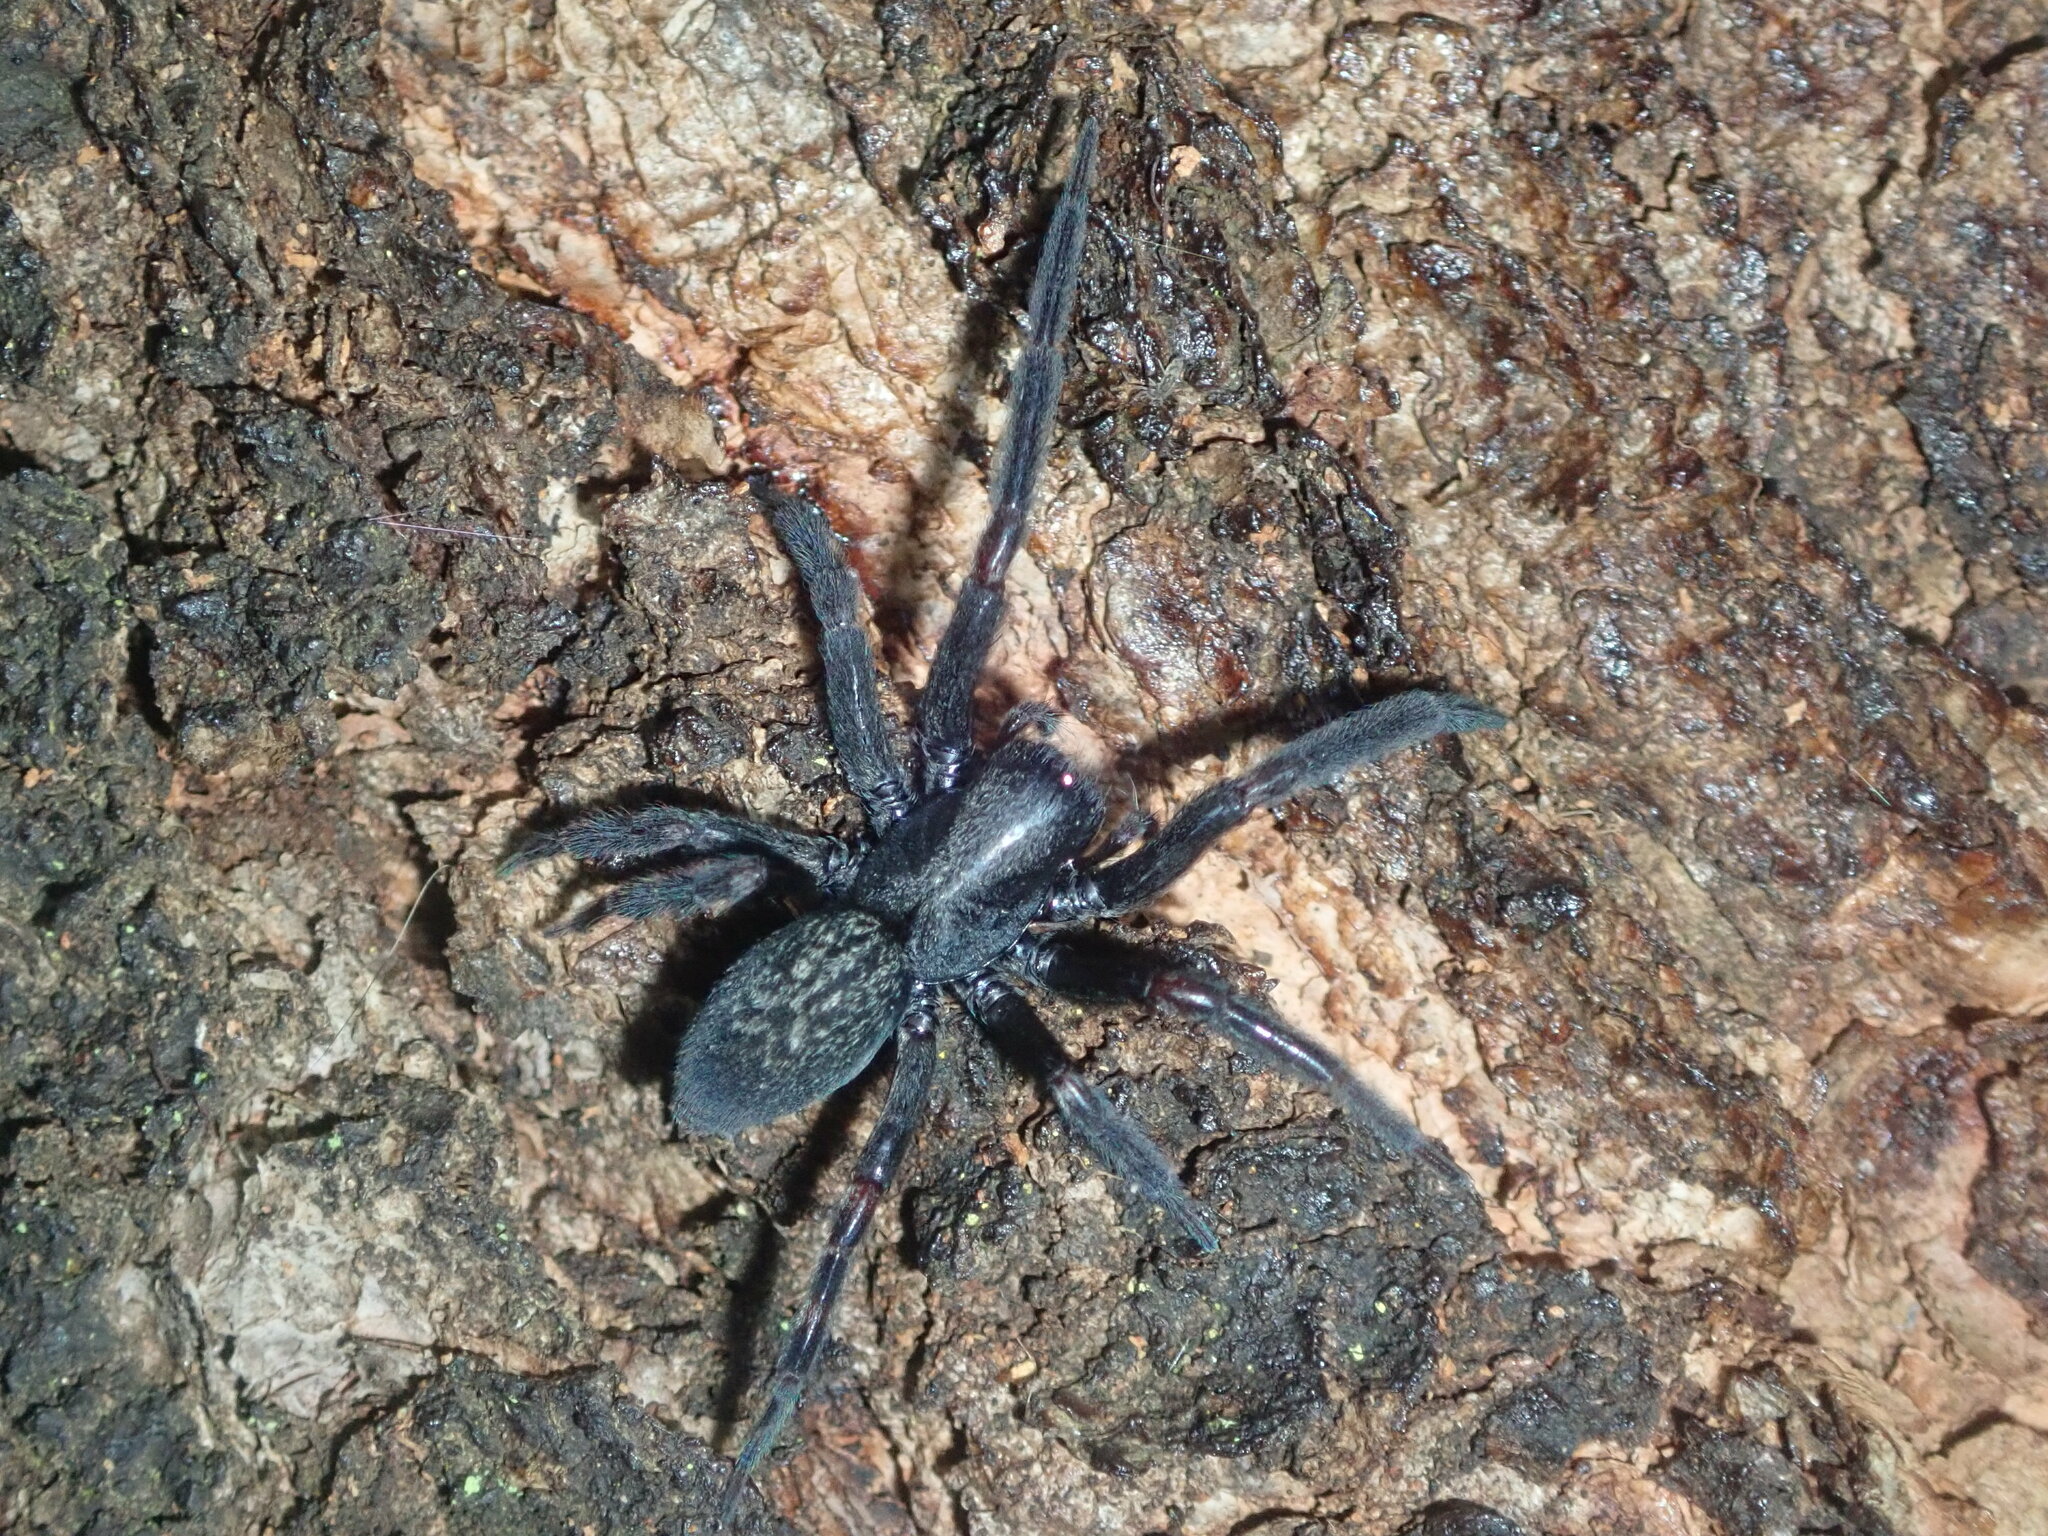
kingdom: Animalia
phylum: Arthropoda
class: Arachnida
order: Araneae
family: Desidae
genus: Badumna
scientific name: Badumna insignis
